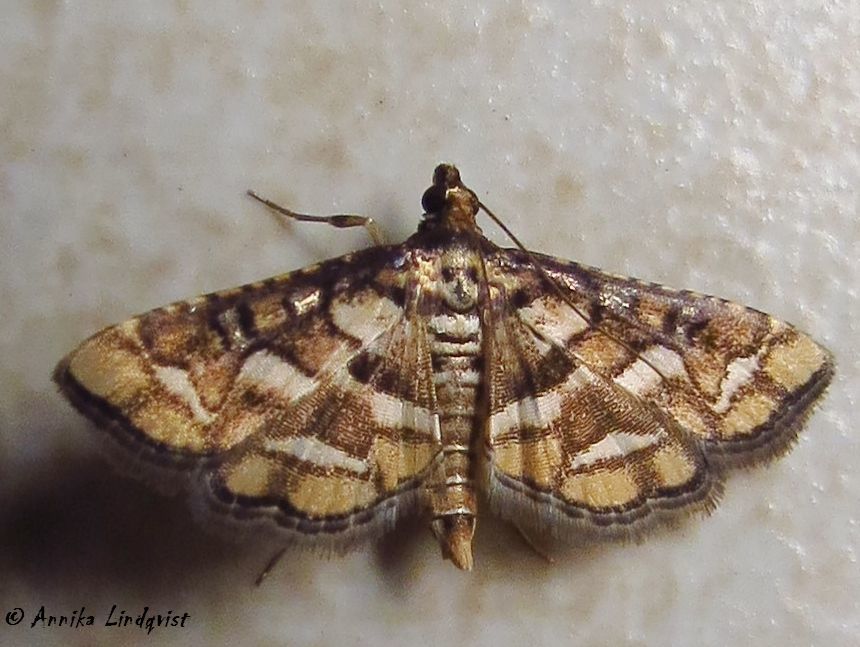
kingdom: Animalia
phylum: Arthropoda
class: Insecta
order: Lepidoptera
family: Crambidae
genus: Hileithia
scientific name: Hileithia magualis
